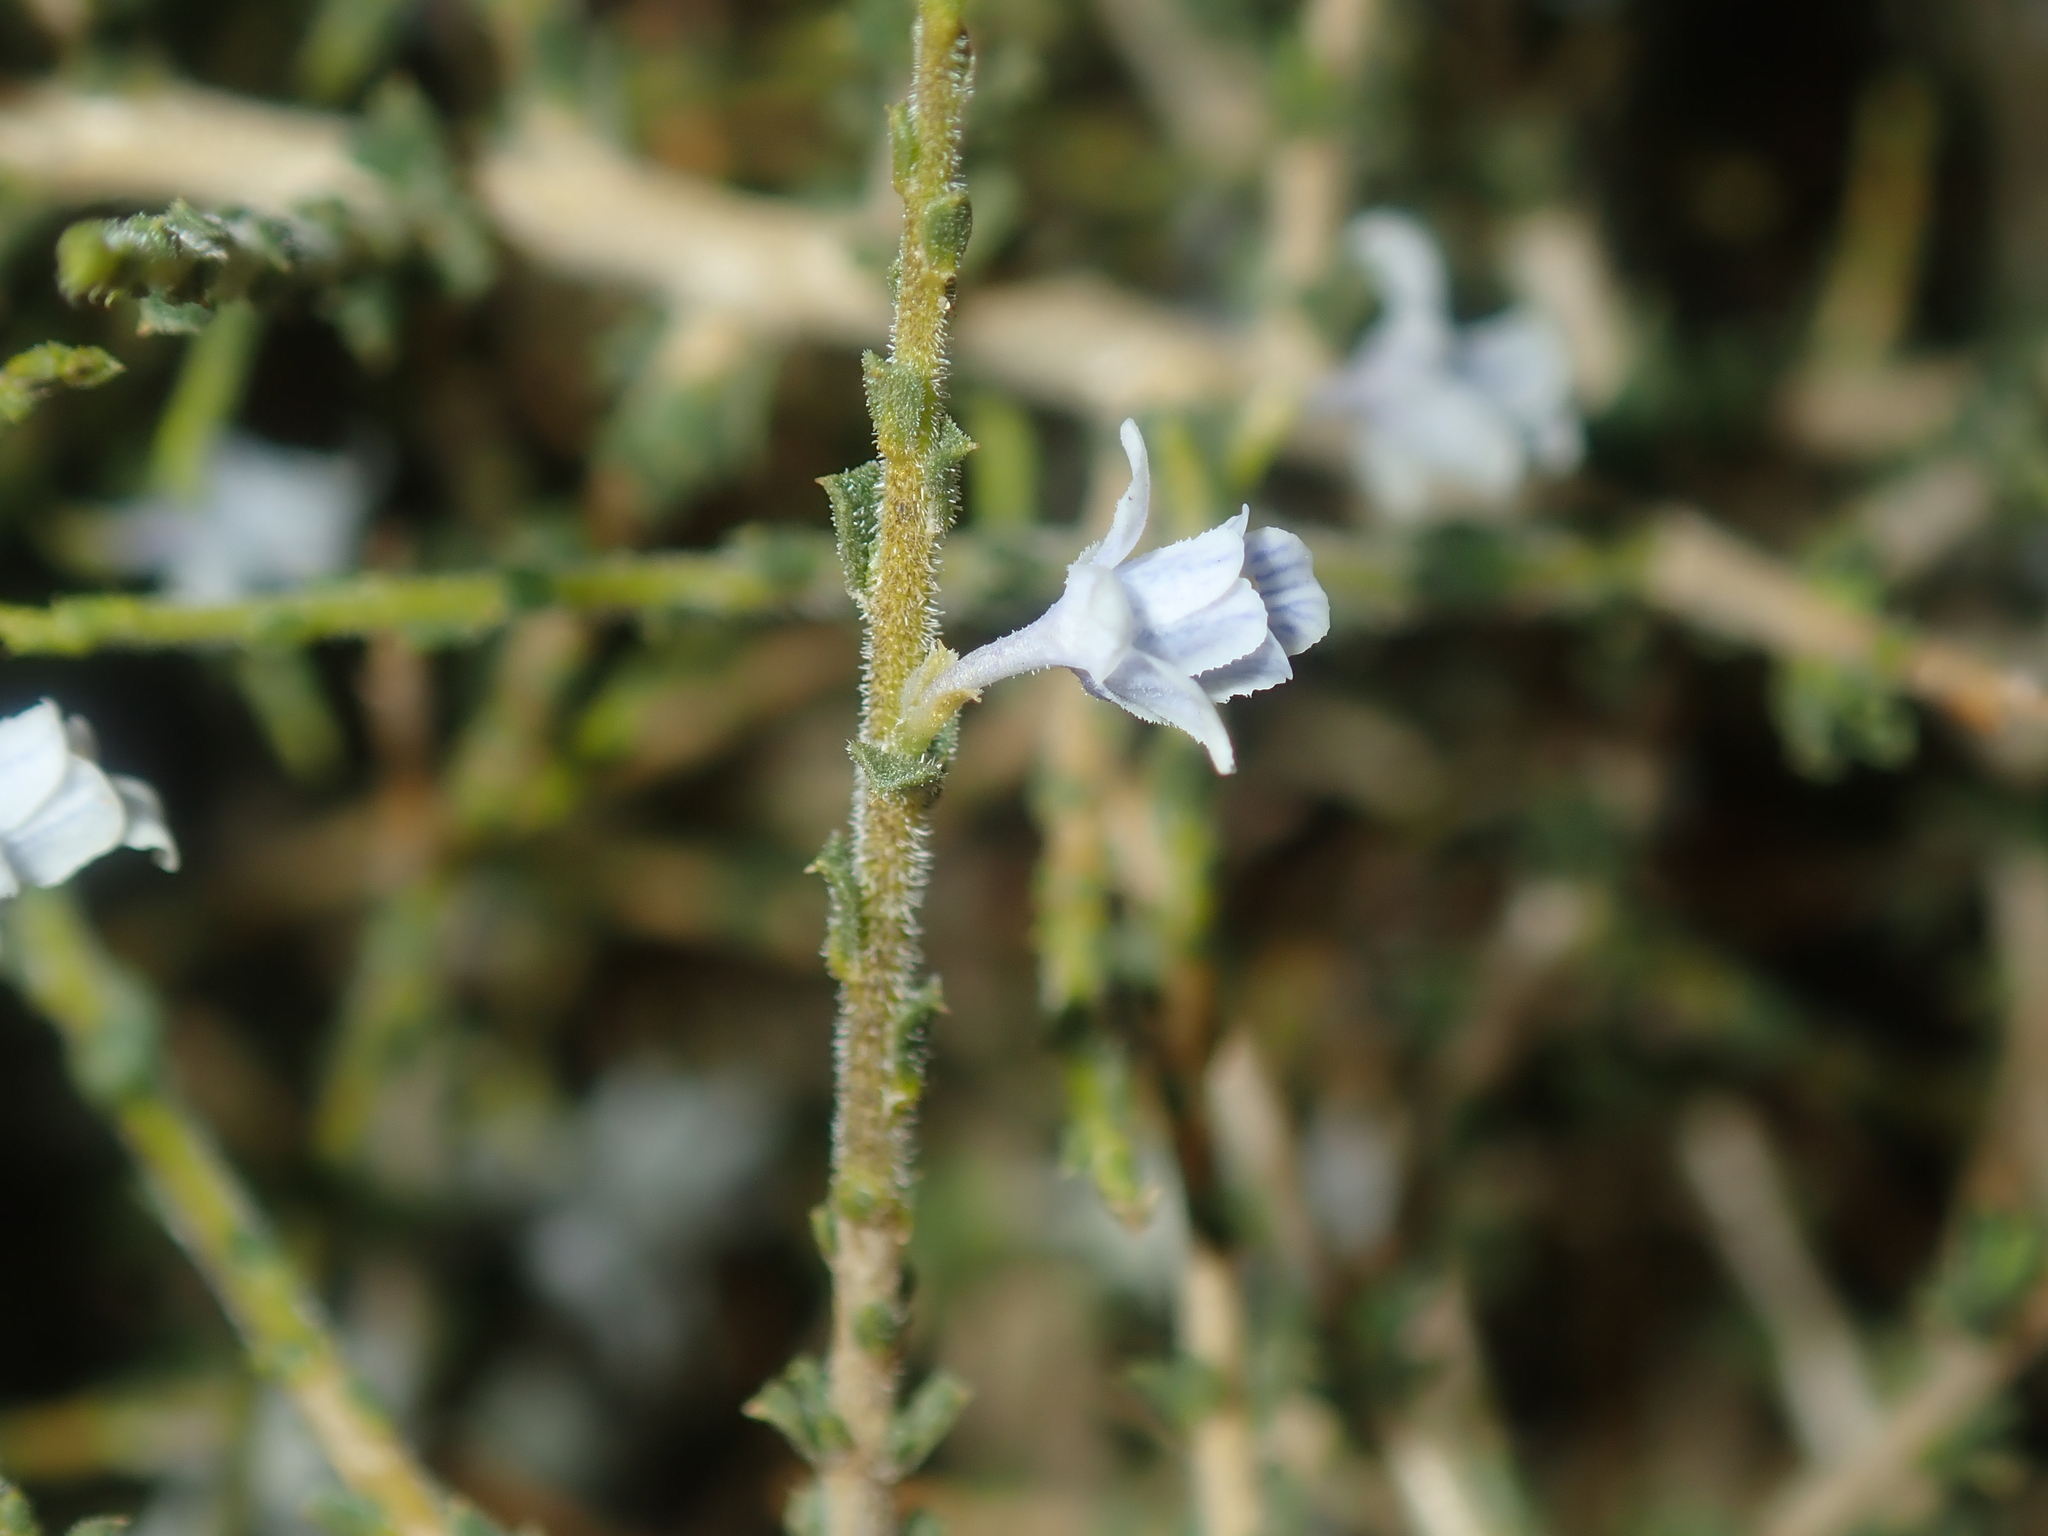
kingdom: Plantae
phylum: Tracheophyta
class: Magnoliopsida
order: Malpighiales
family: Violaceae
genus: Pigea
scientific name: Pigea epacroides
